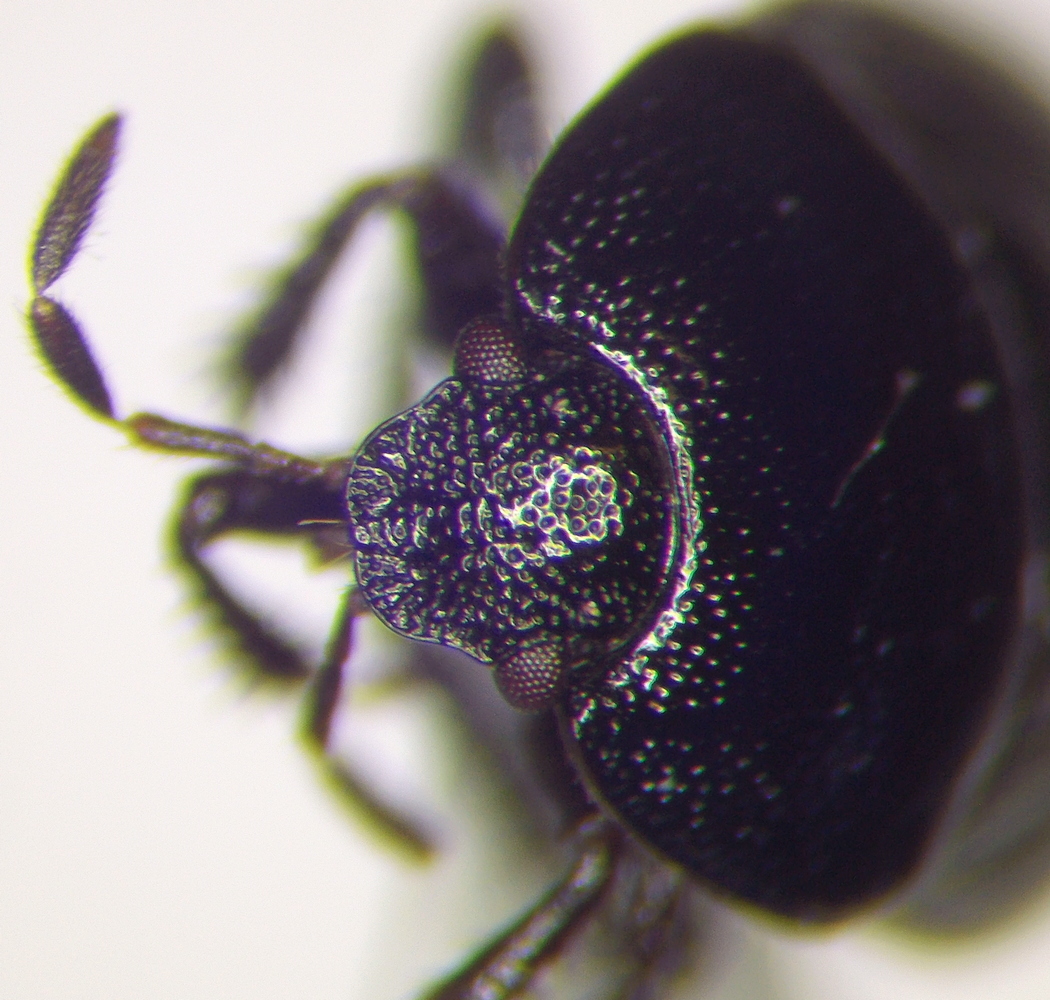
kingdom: Animalia
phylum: Arthropoda
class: Insecta
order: Hemiptera
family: Cydnidae
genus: Legnotus
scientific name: Legnotus picipes
